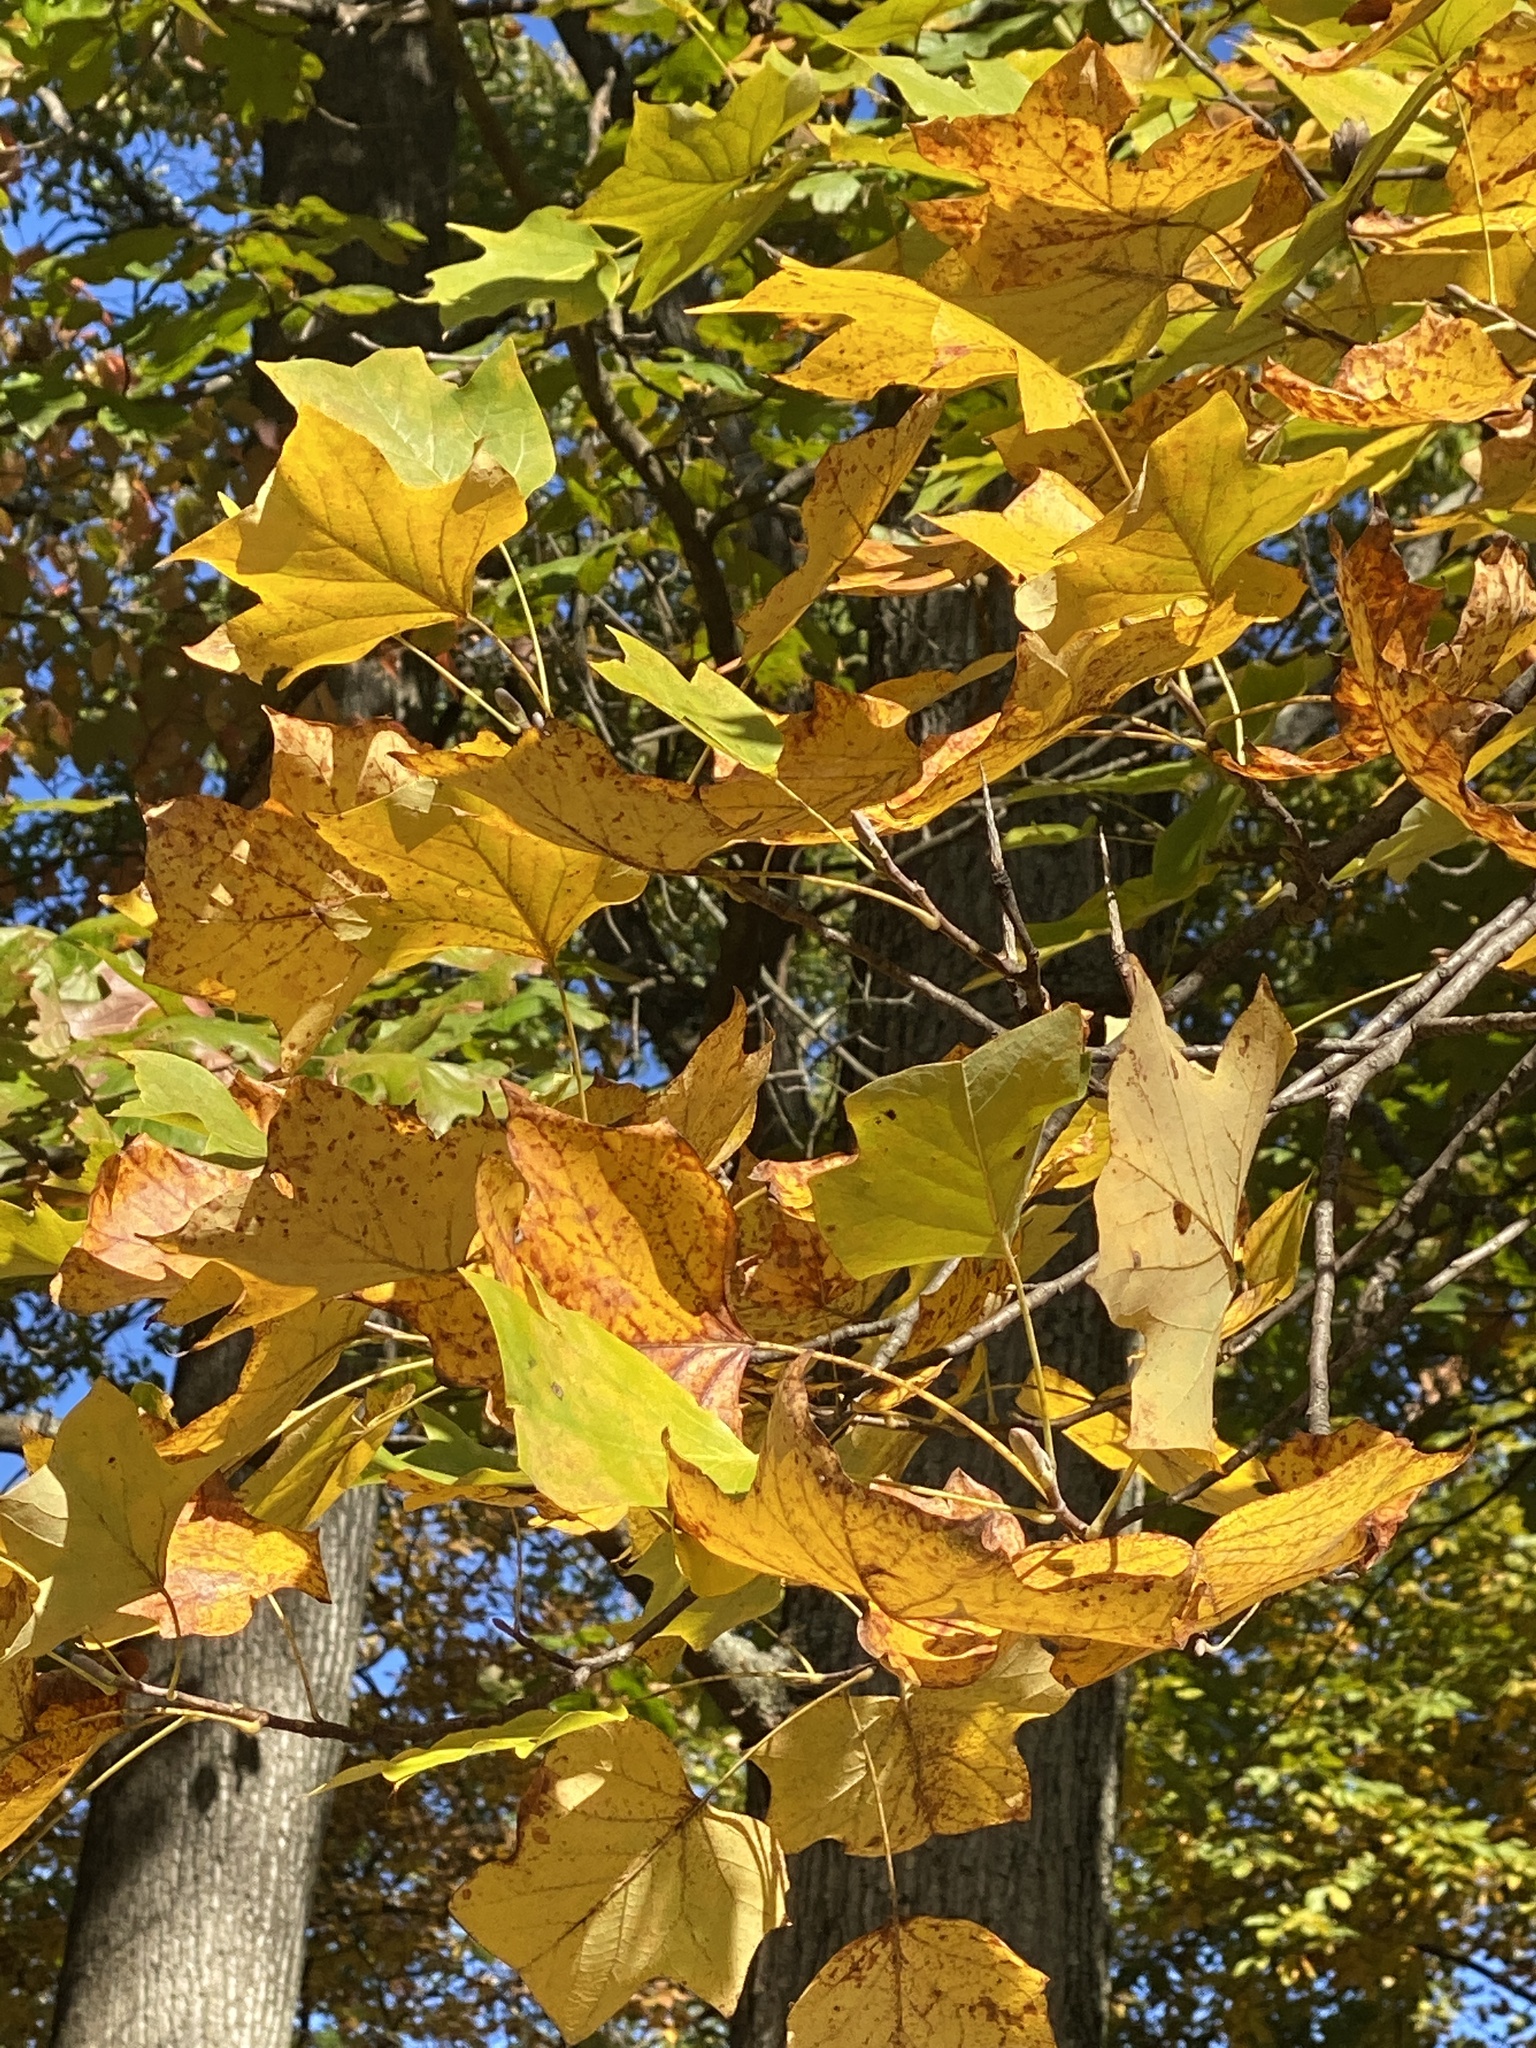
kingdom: Plantae
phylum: Tracheophyta
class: Magnoliopsida
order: Magnoliales
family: Magnoliaceae
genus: Liriodendron
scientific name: Liriodendron tulipifera
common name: Tulip tree
